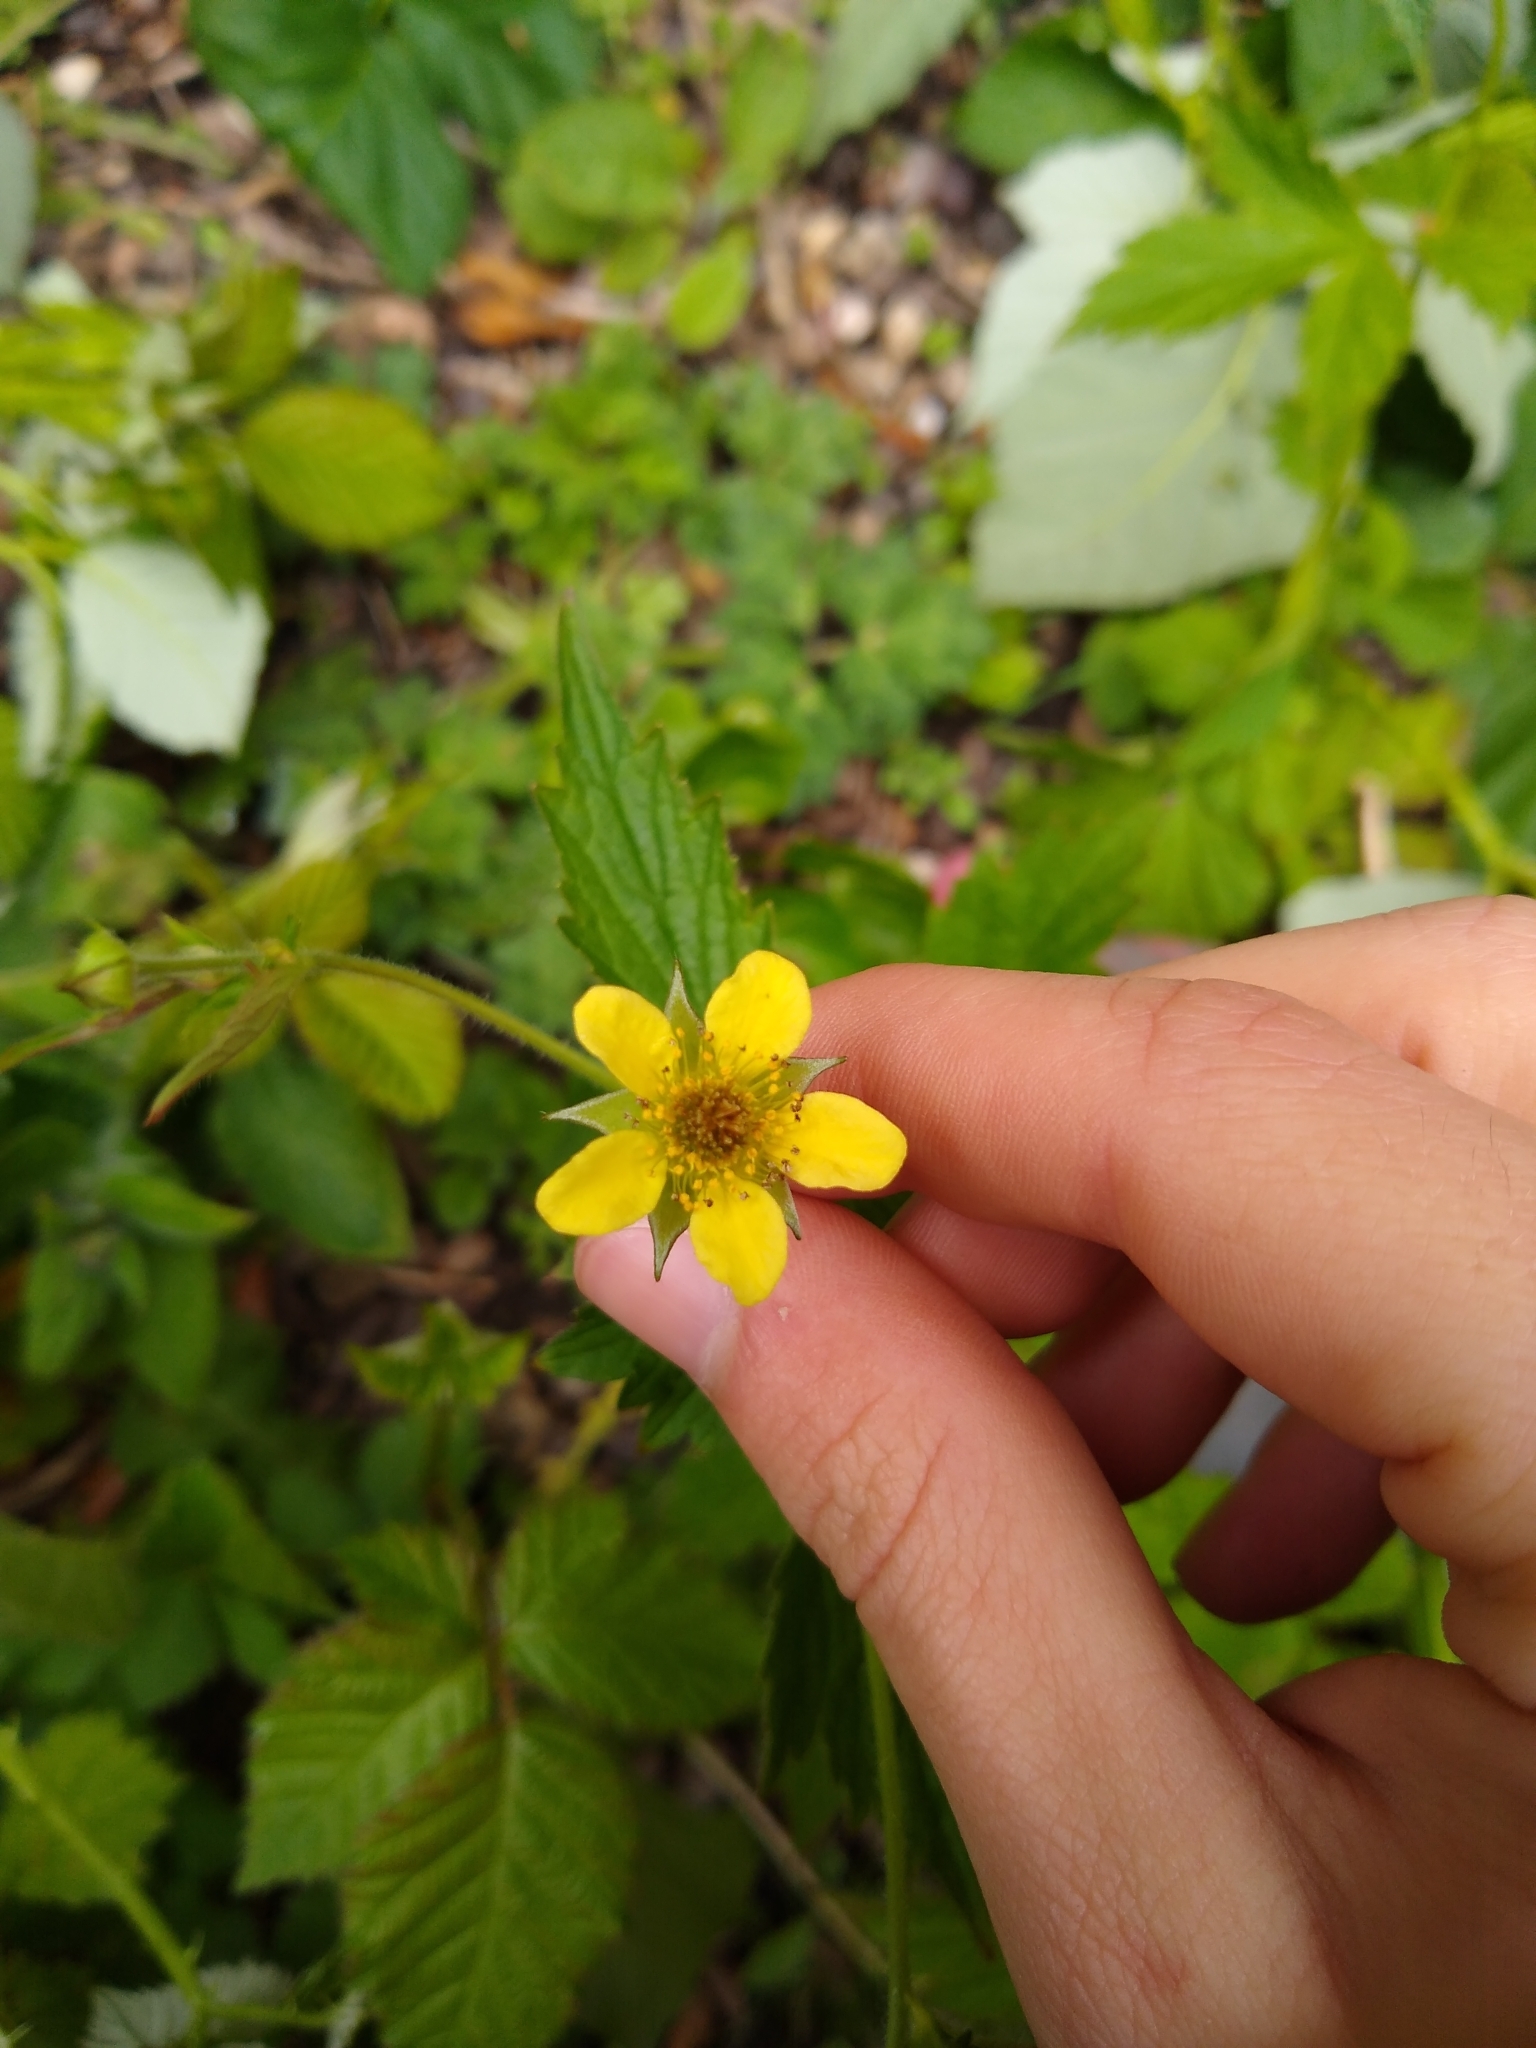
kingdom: Plantae
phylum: Tracheophyta
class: Magnoliopsida
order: Rosales
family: Rosaceae
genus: Geum
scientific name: Geum urbanum
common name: Wood avens
